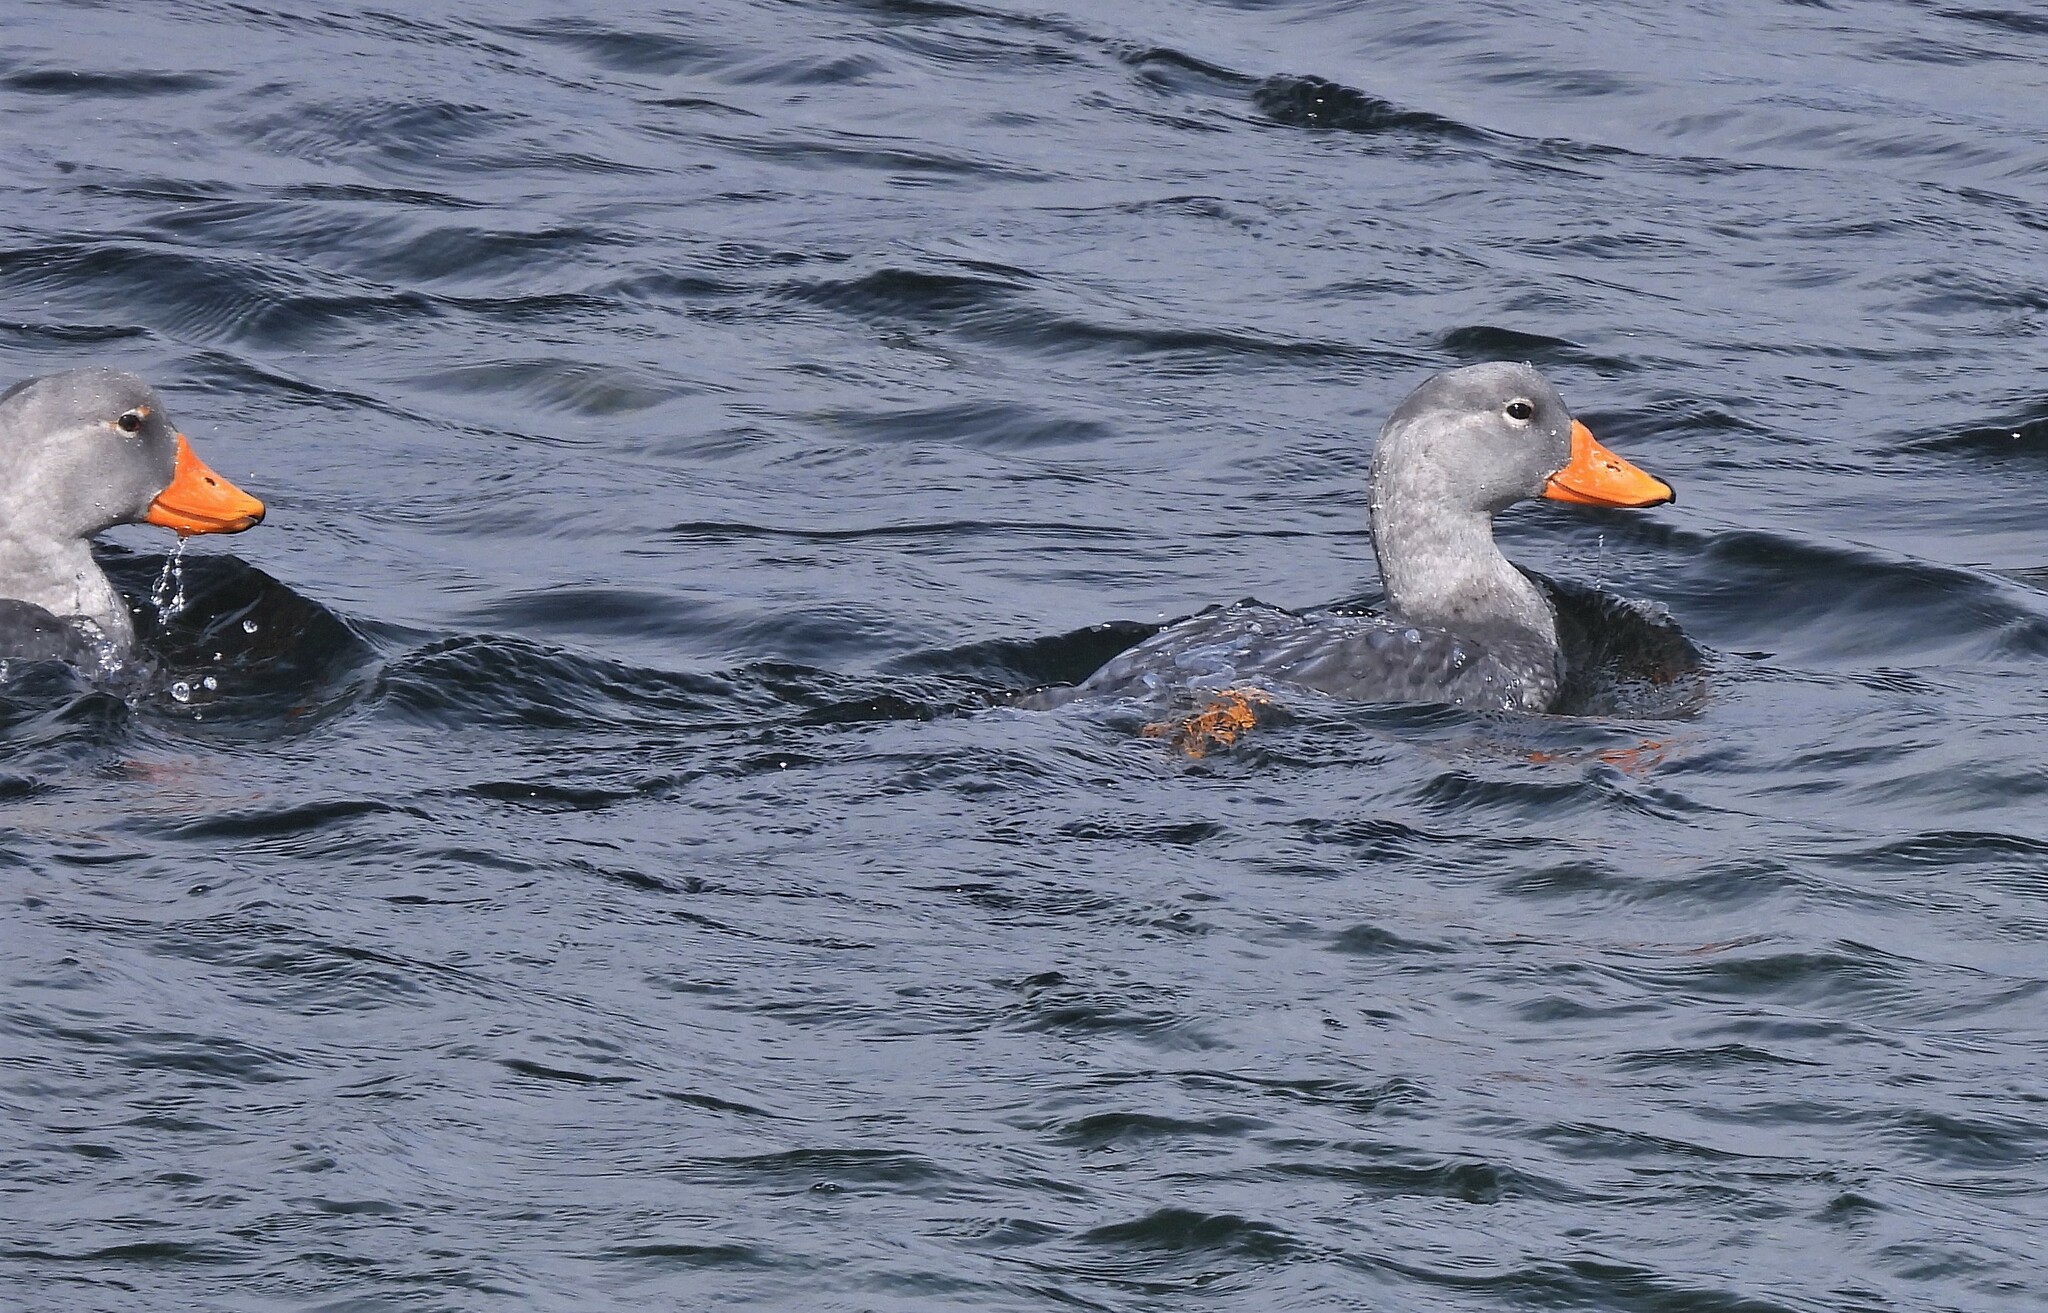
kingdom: Animalia
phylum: Chordata
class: Aves
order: Anseriformes
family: Anatidae
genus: Tachyeres
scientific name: Tachyeres pteneres
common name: Fuegian steamer duck
